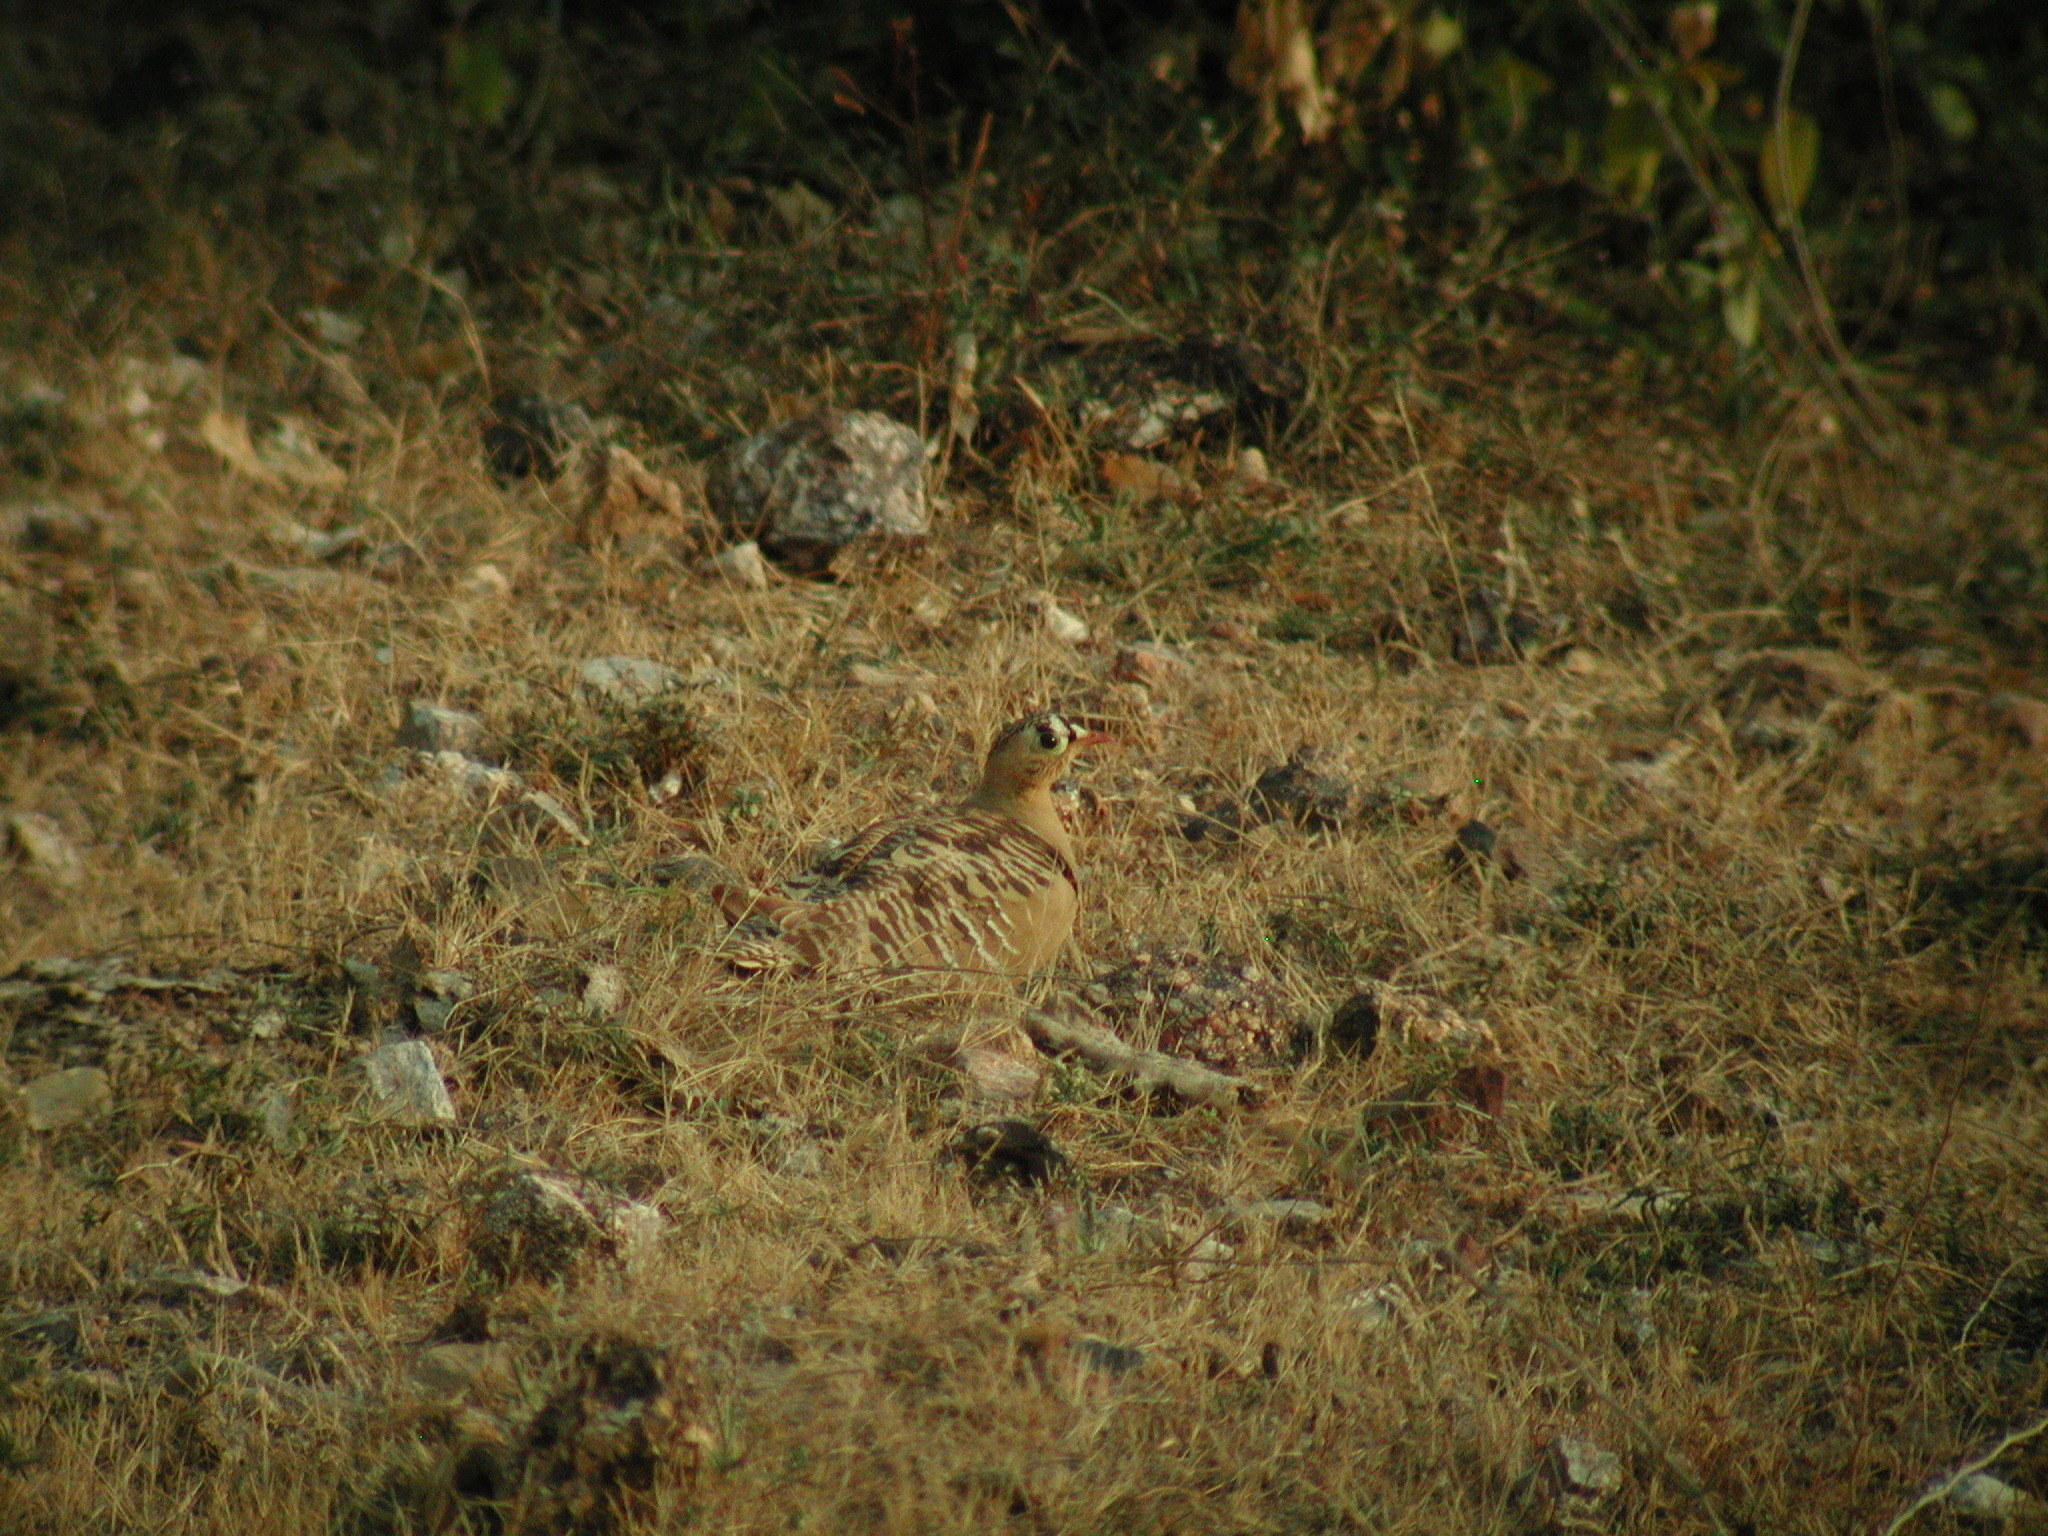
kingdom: Animalia
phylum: Chordata
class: Aves
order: Pteroclidiformes
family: Pteroclididae
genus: Pterocles
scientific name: Pterocles indicus
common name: Painted sandgrouse
